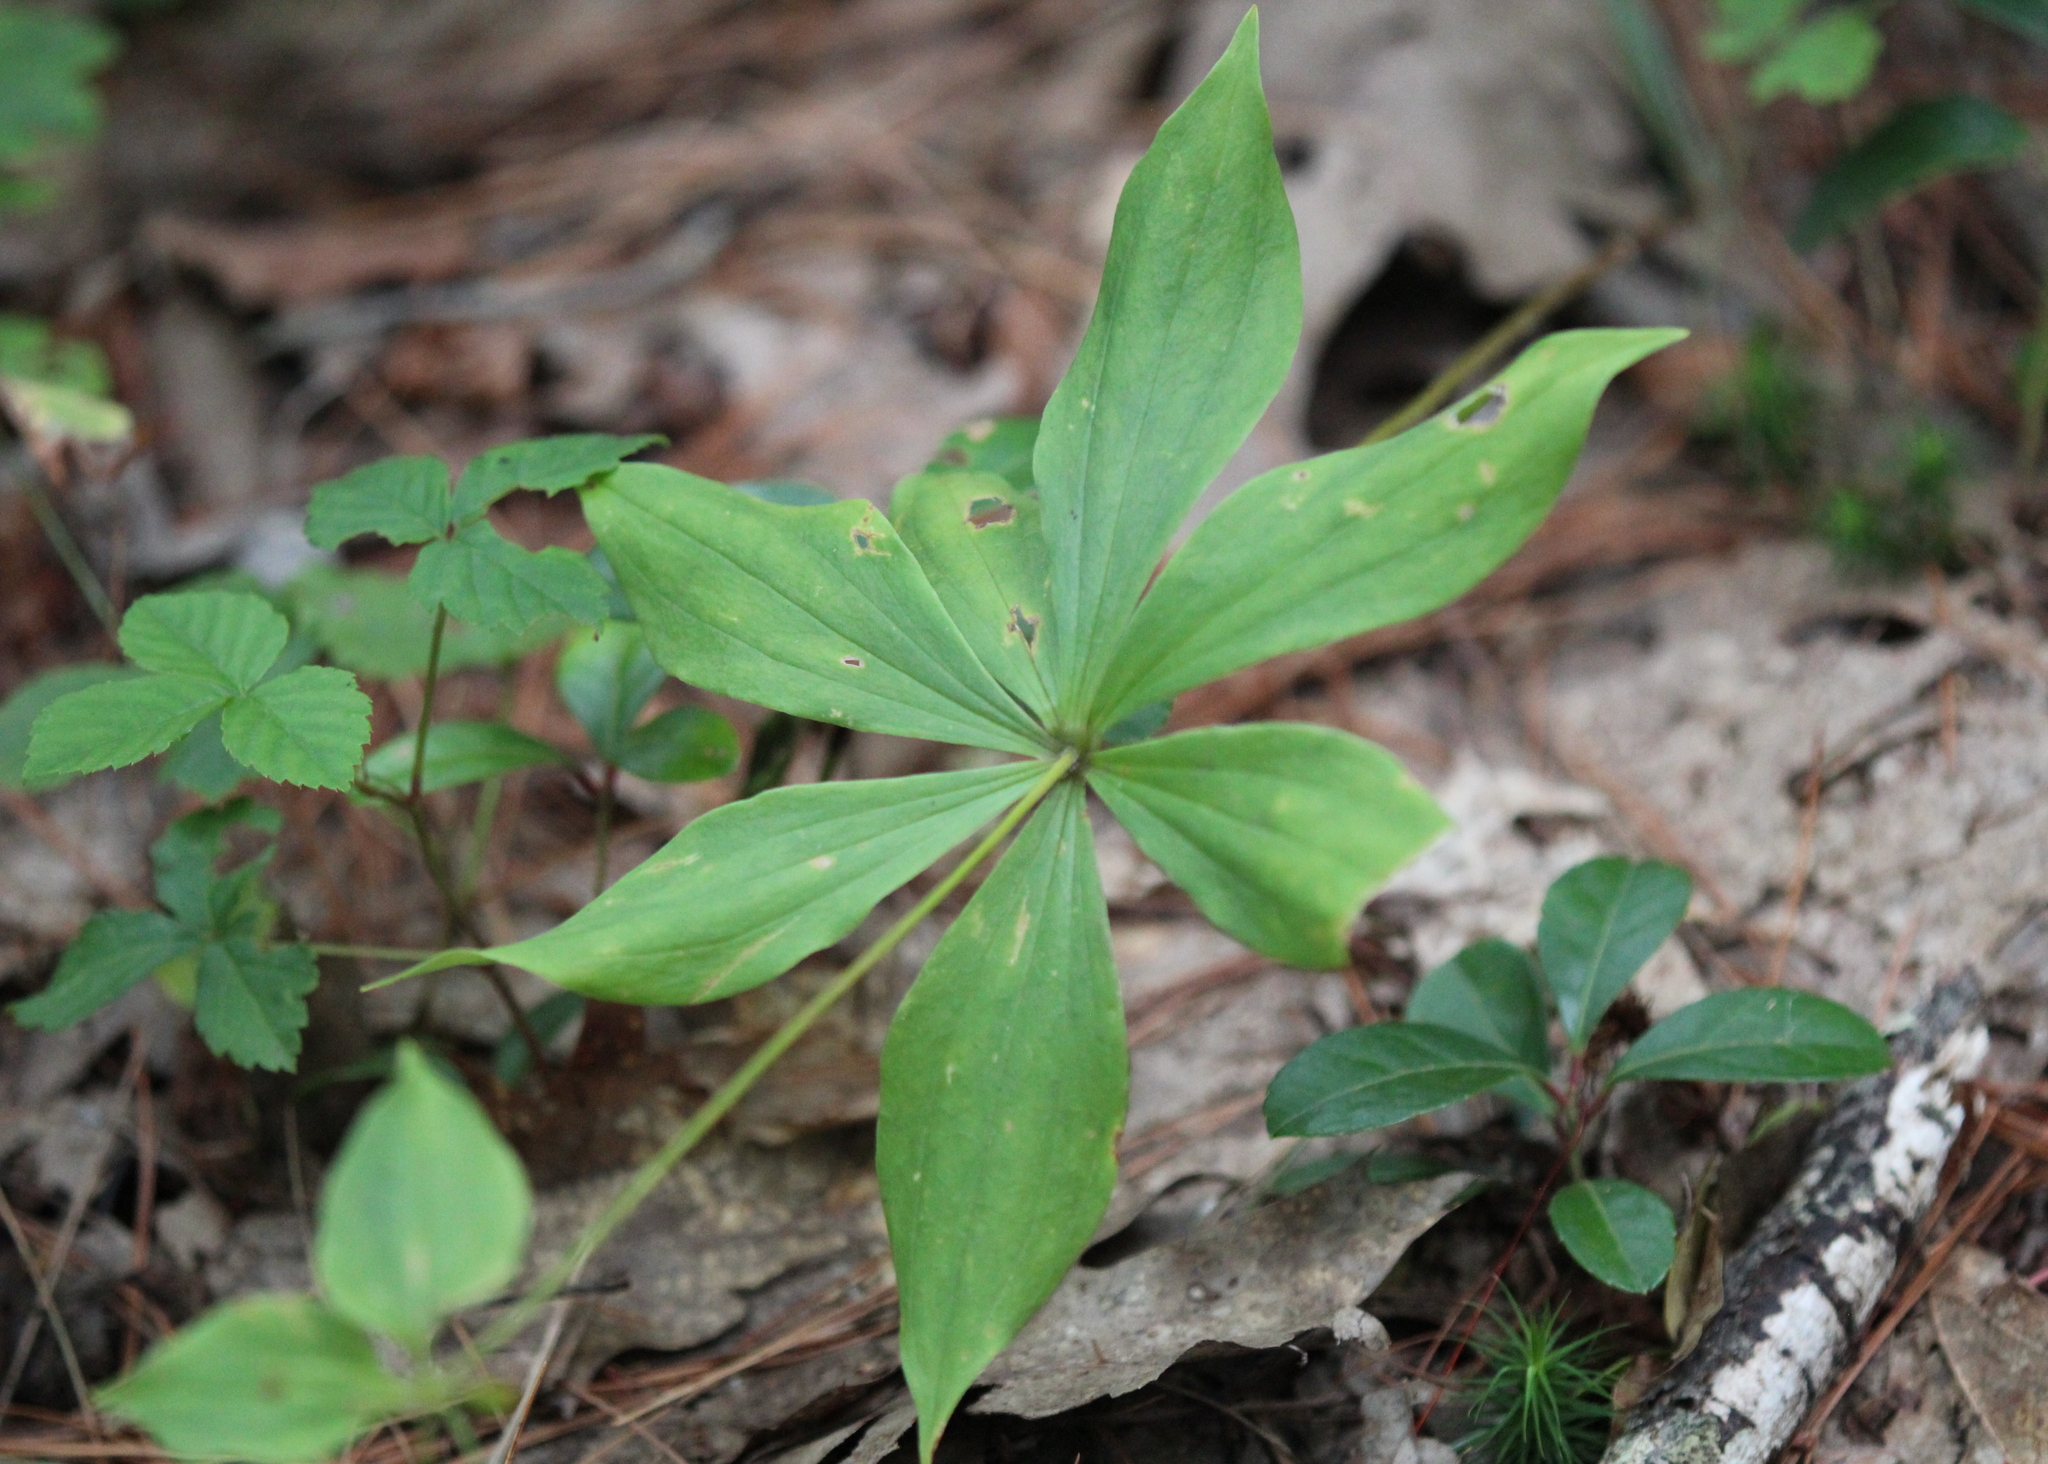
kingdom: Plantae
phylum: Tracheophyta
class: Liliopsida
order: Liliales
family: Liliaceae
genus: Medeola
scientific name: Medeola virginiana
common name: Indian cucumber-root
